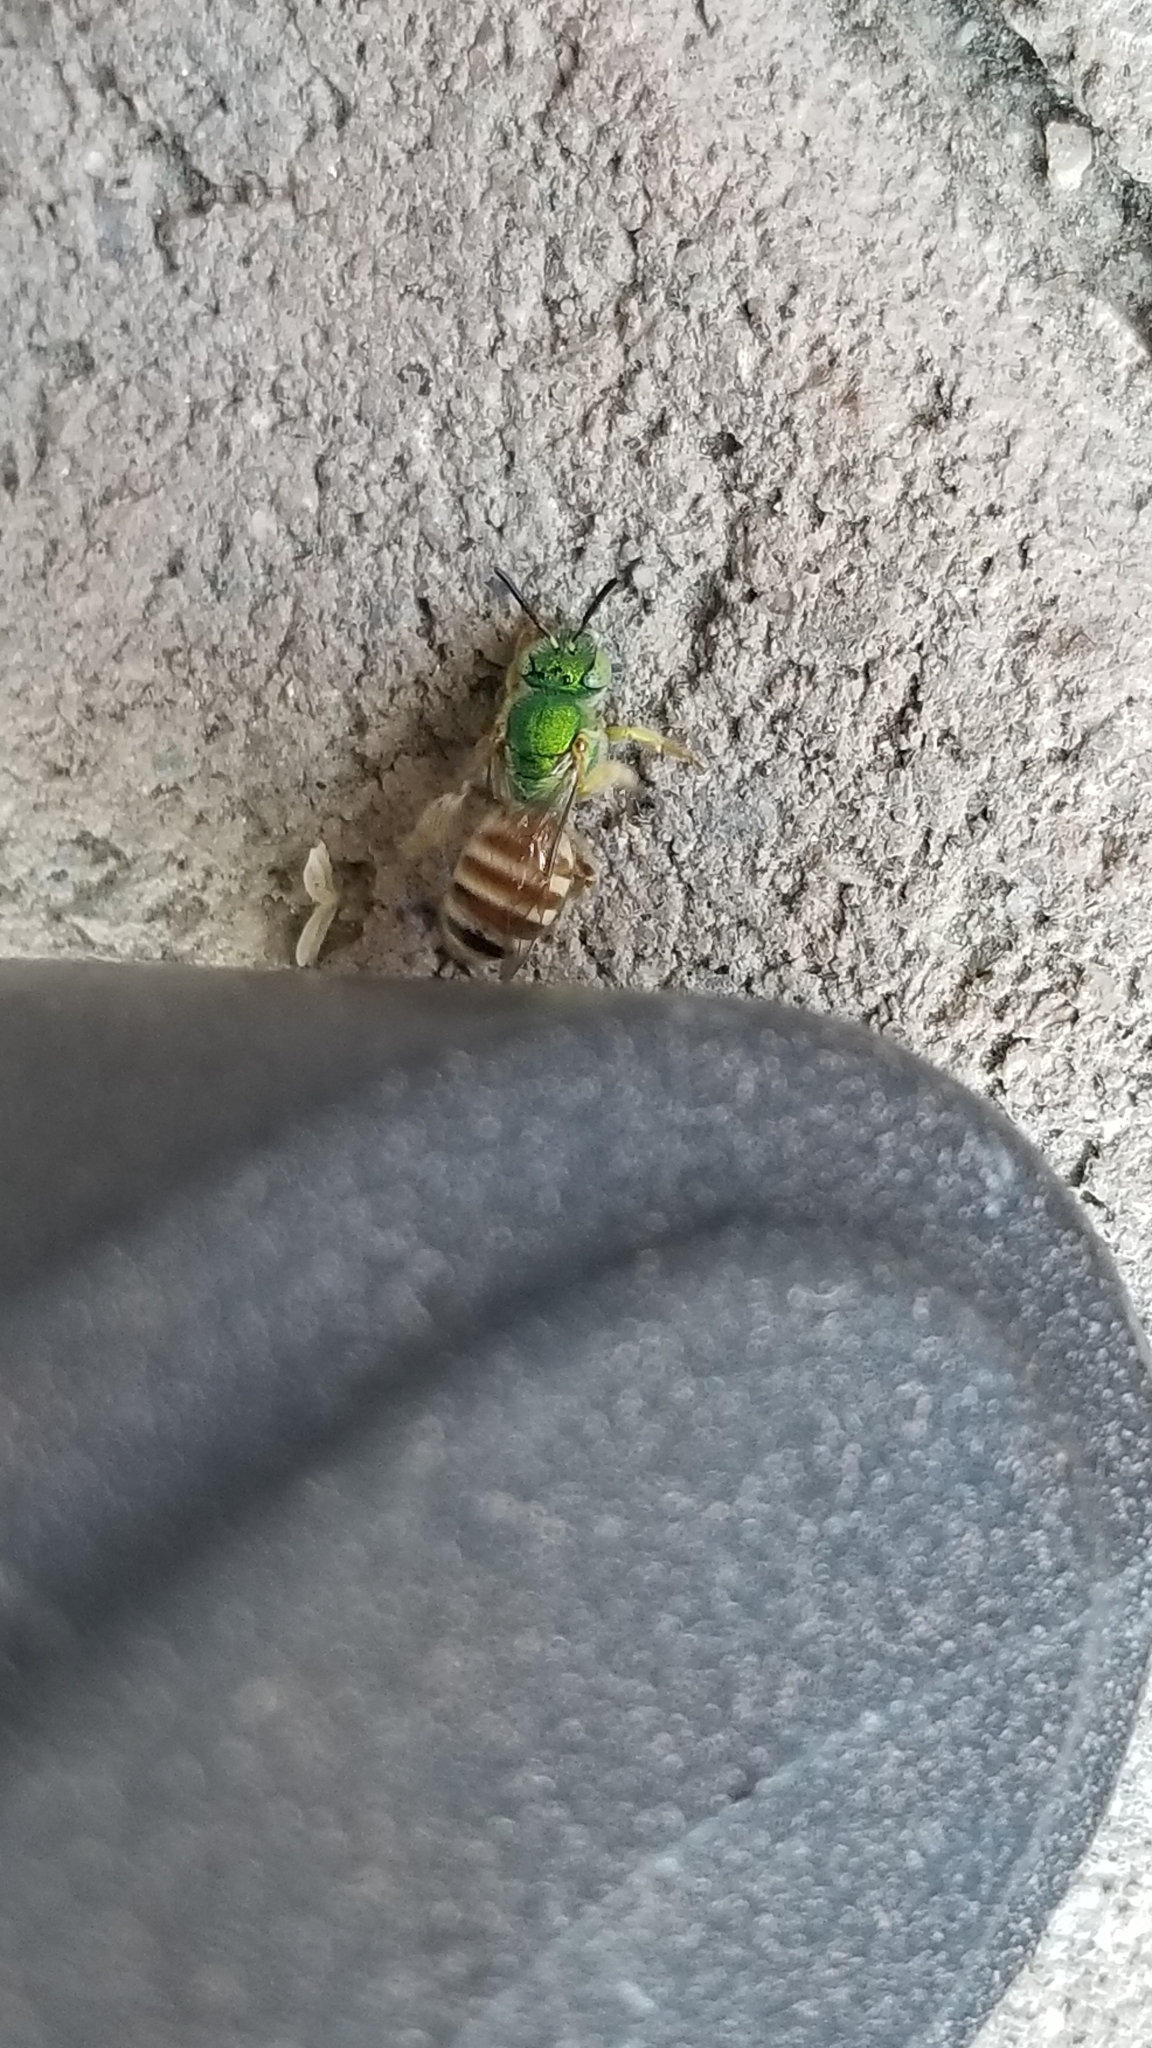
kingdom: Animalia
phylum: Arthropoda
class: Insecta
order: Hymenoptera
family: Halictidae
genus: Agapostemon
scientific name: Agapostemon melliventris
